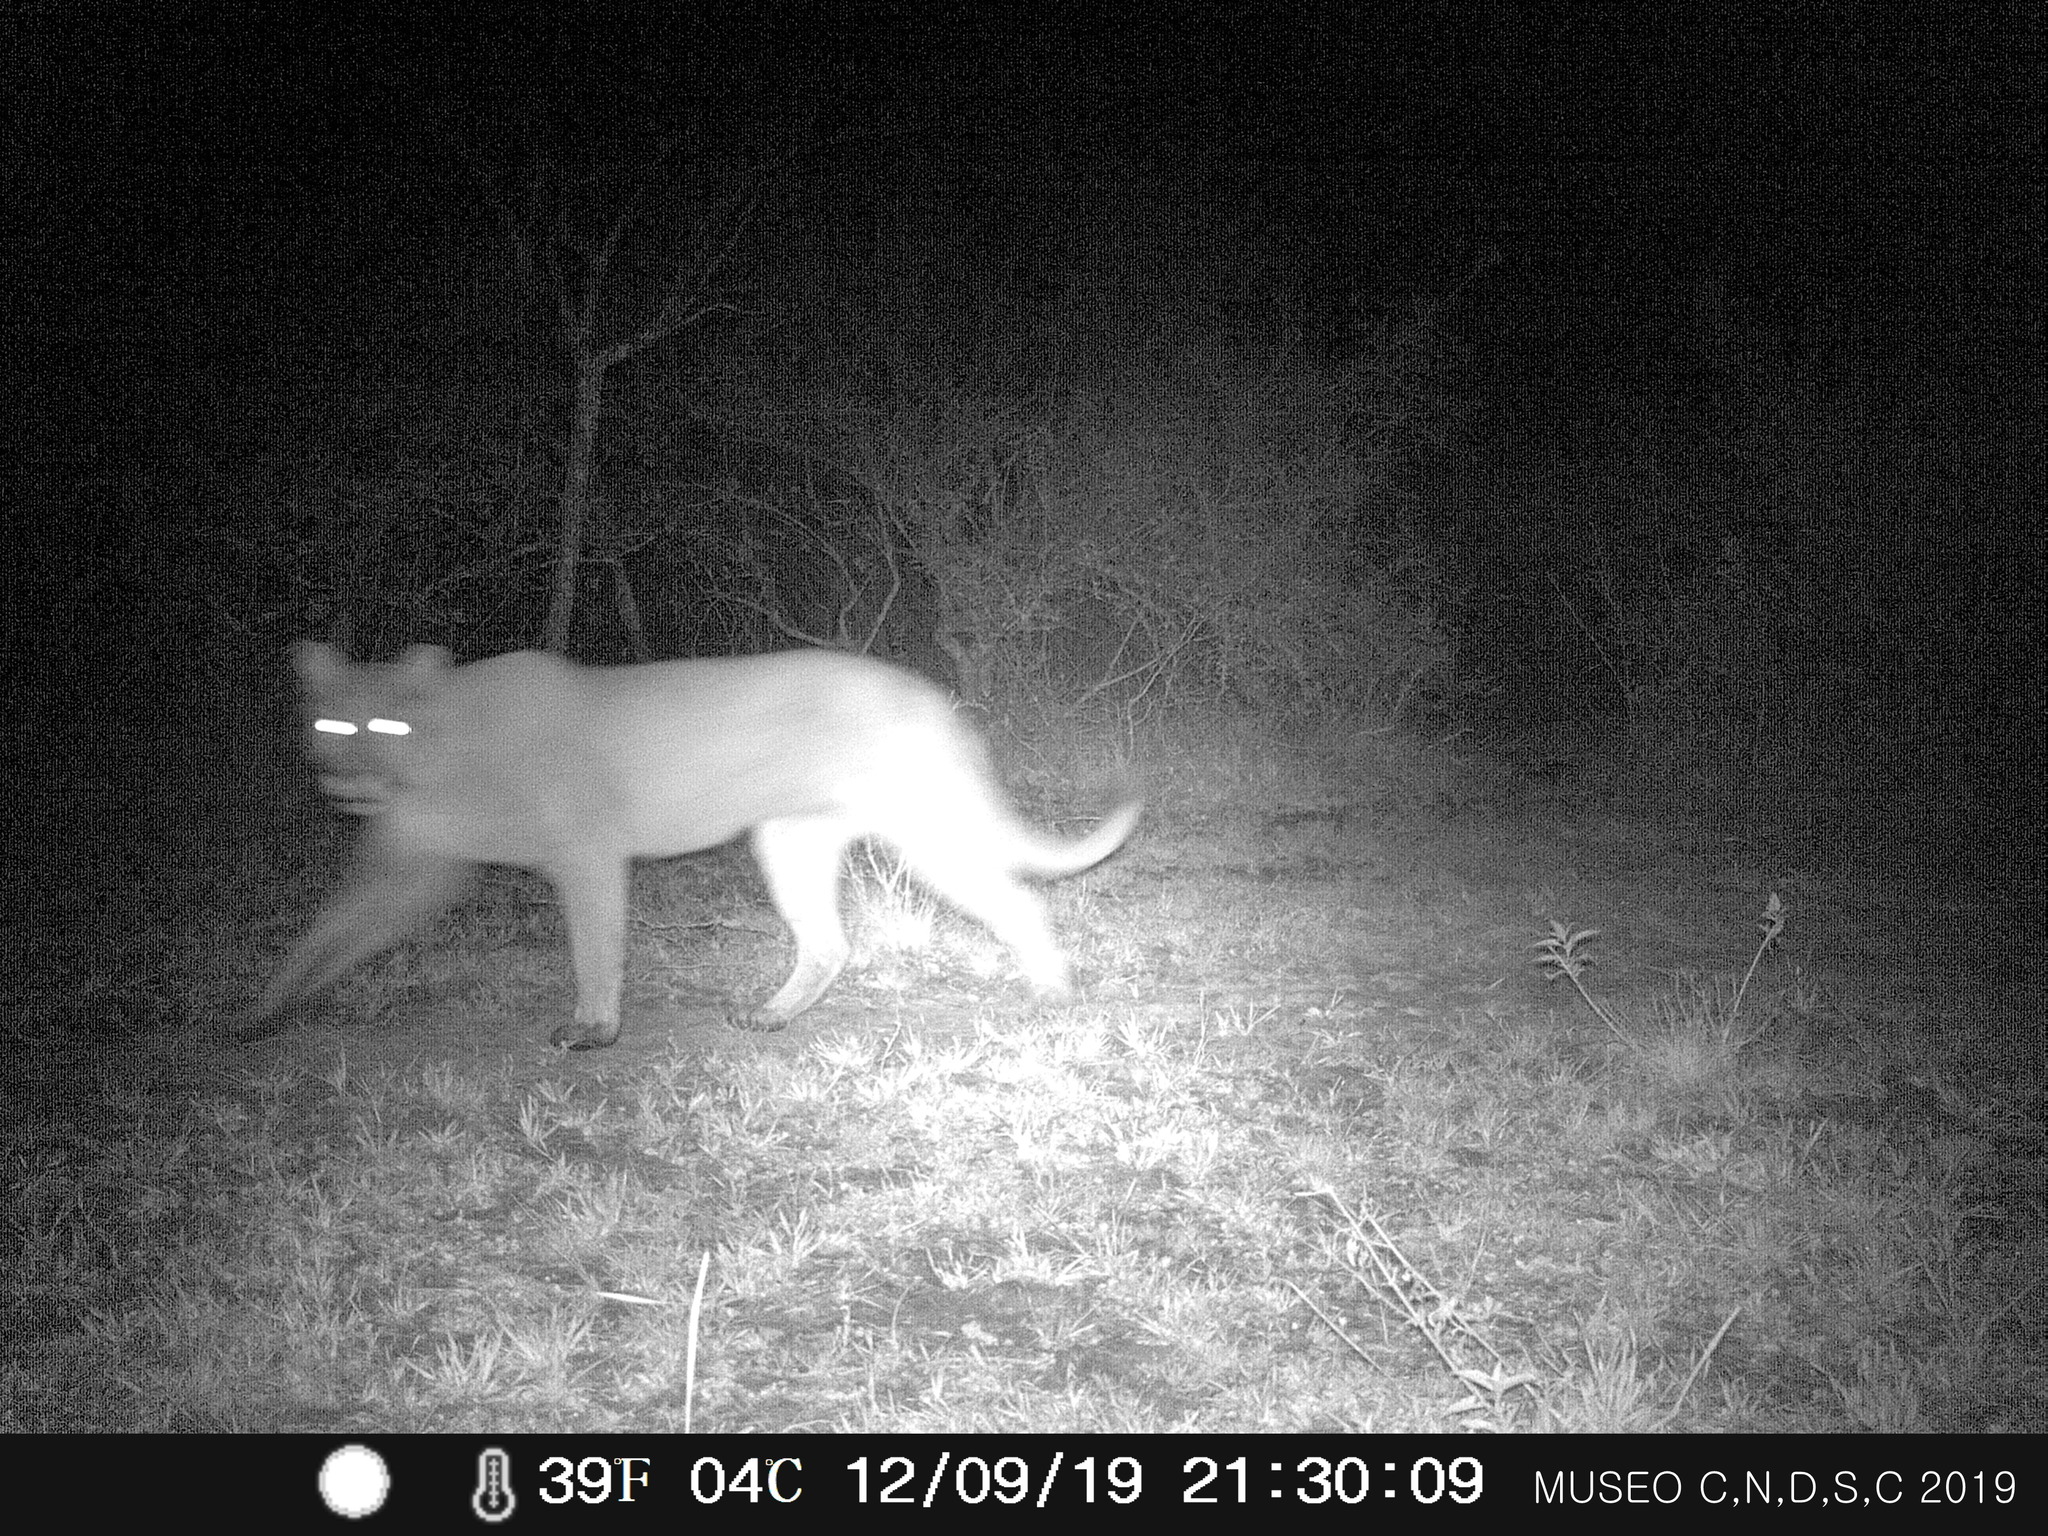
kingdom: Animalia
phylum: Chordata
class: Mammalia
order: Carnivora
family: Felidae
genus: Puma
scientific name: Puma concolor
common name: Puma
